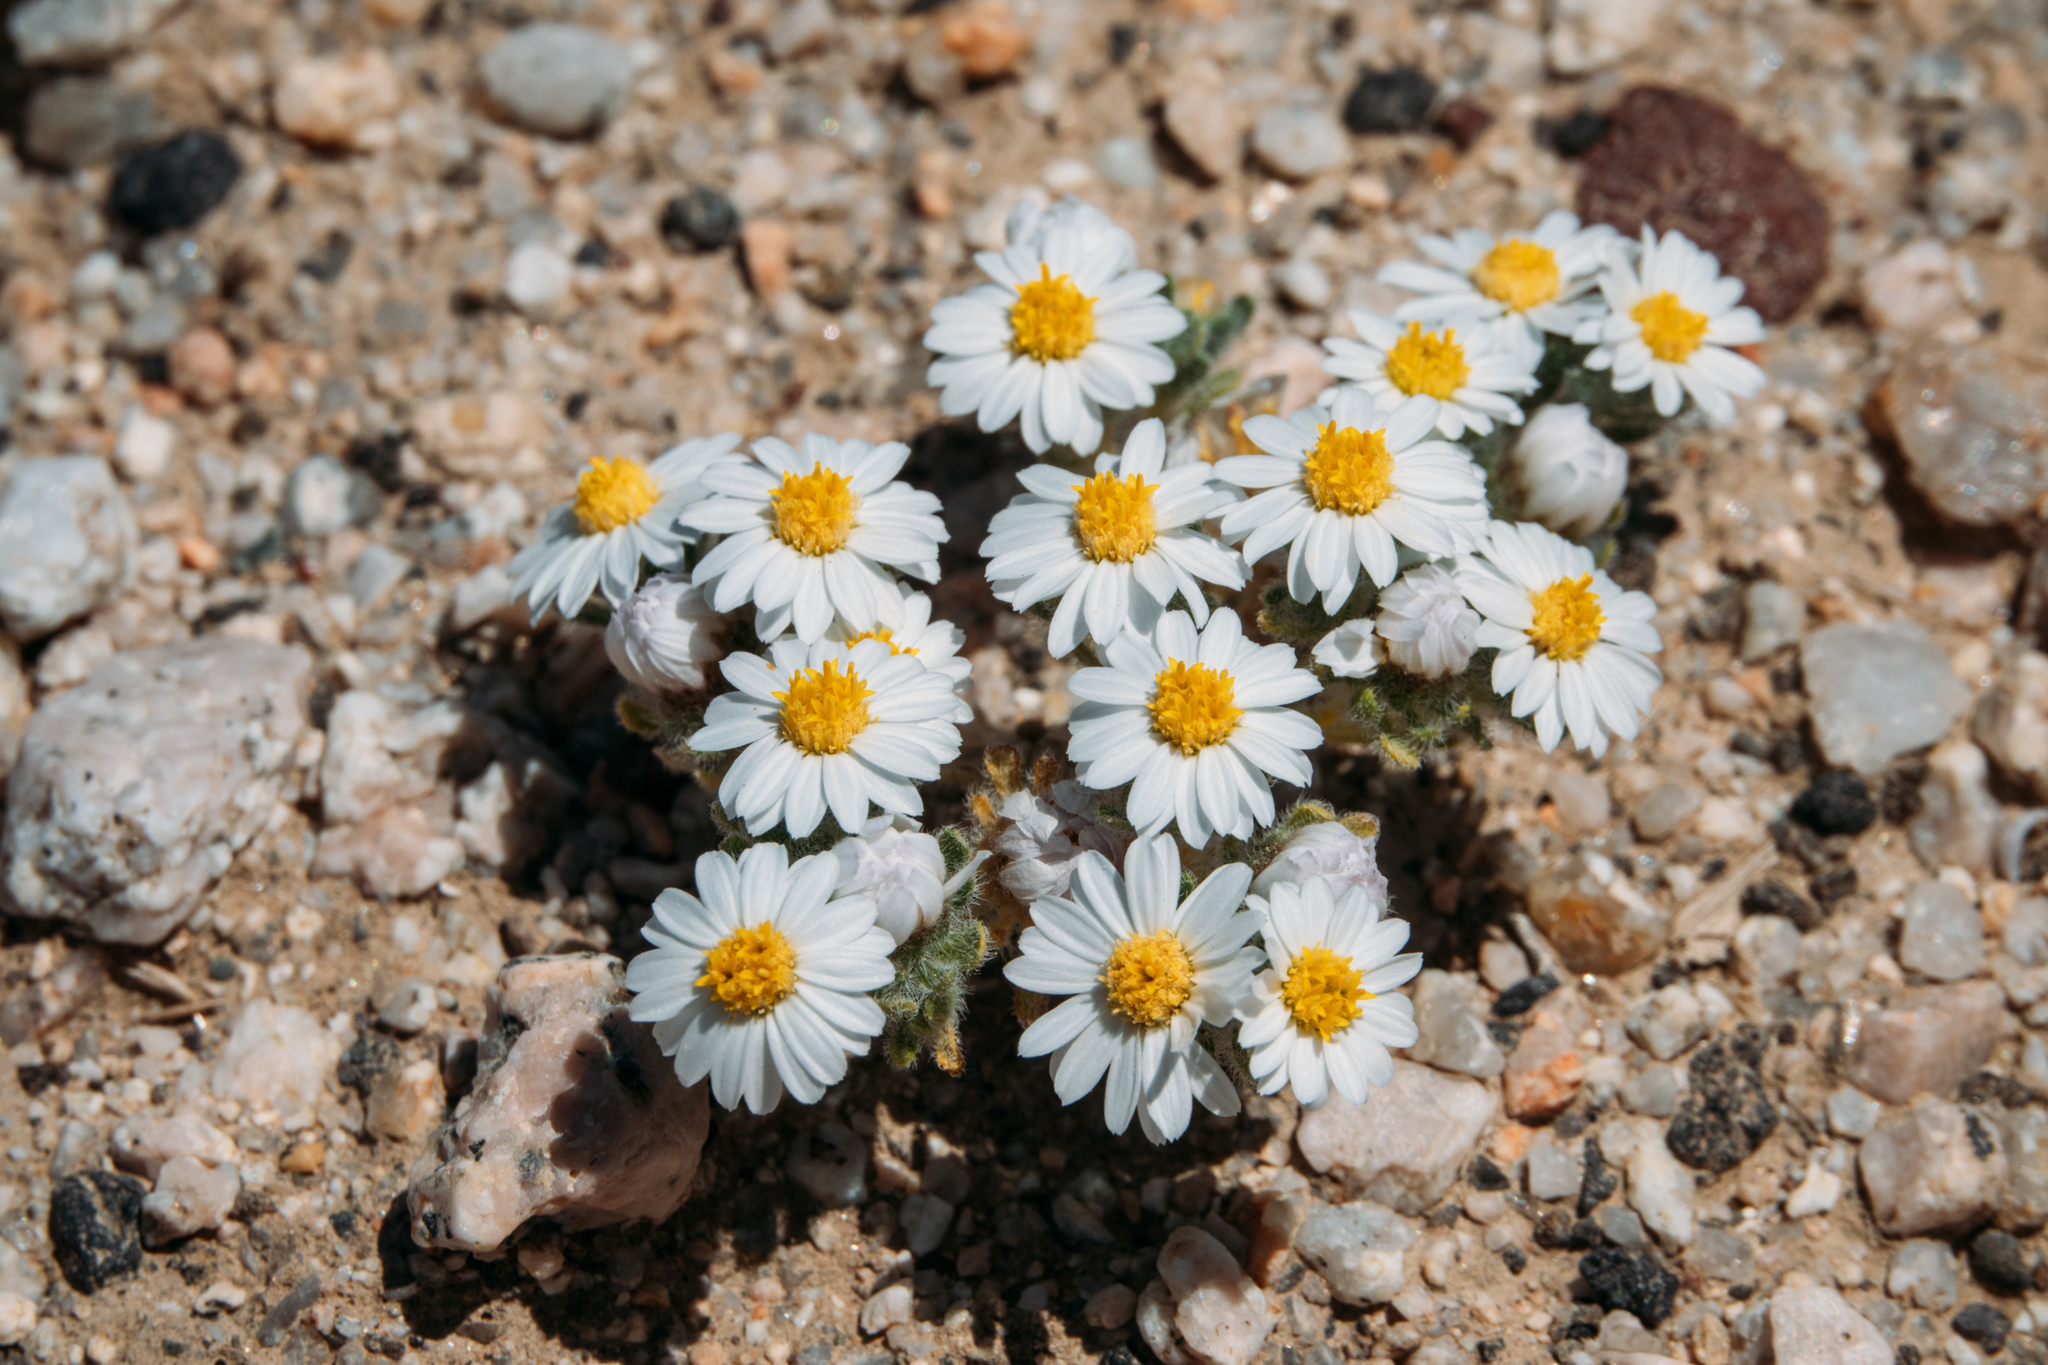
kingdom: Plantae
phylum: Tracheophyta
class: Magnoliopsida
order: Asterales
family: Asteraceae
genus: Monoptilon
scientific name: Monoptilon bellioides
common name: Bristly desertstar
